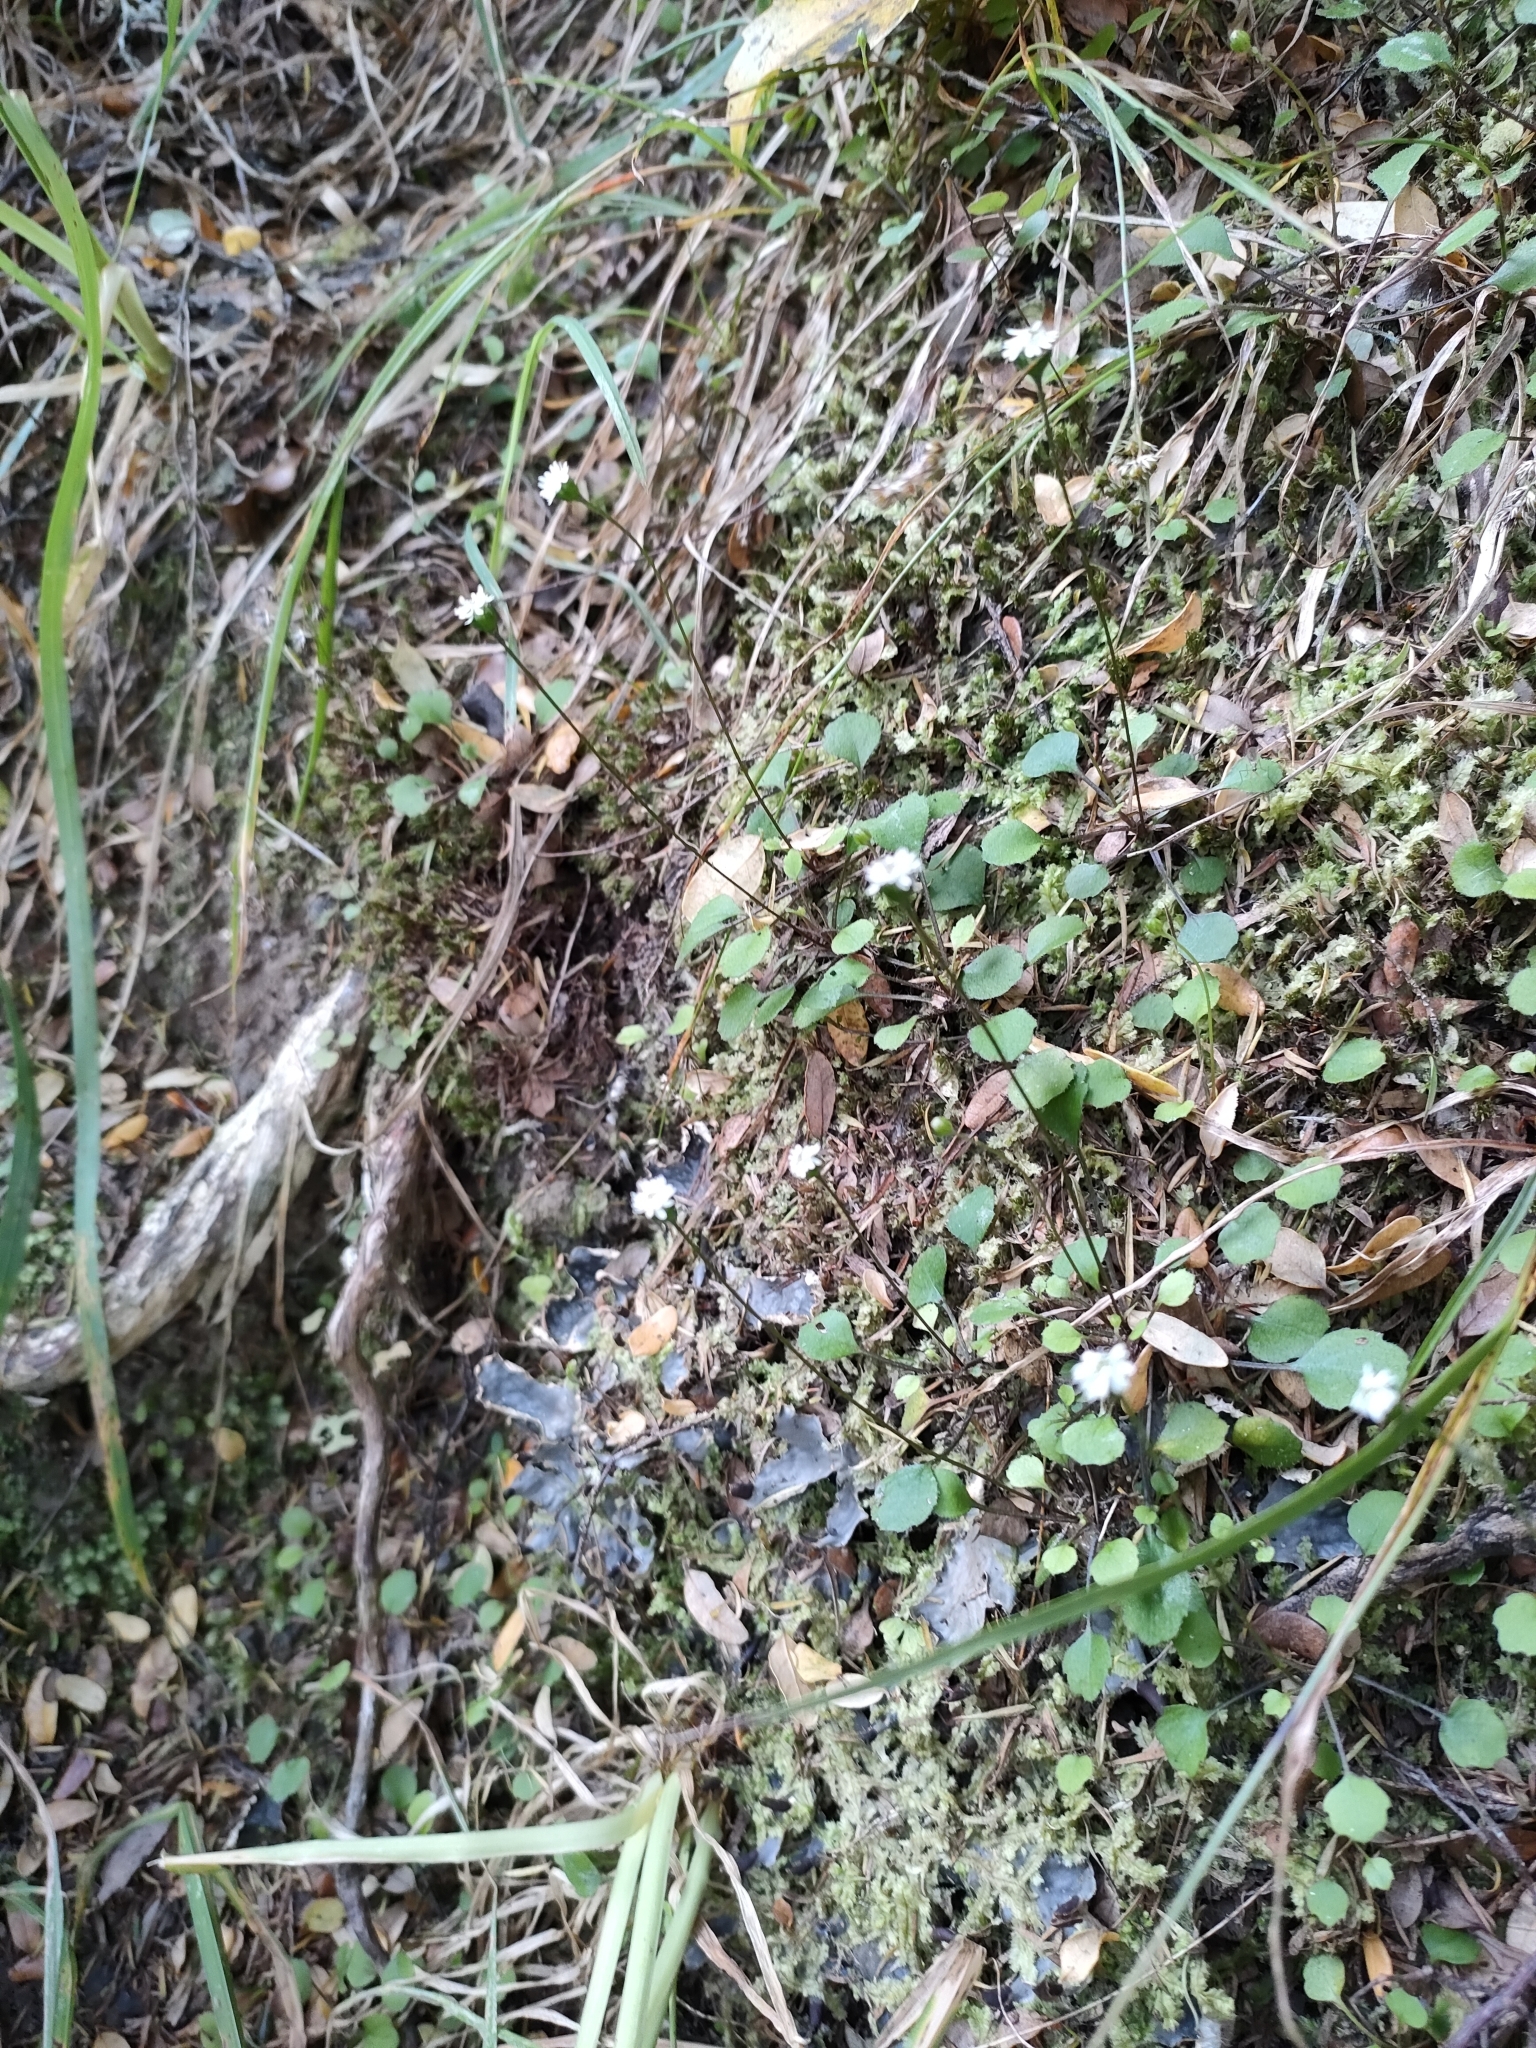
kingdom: Plantae
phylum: Tracheophyta
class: Magnoliopsida
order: Asterales
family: Asteraceae
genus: Lagenophora
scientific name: Lagenophora strangulata
